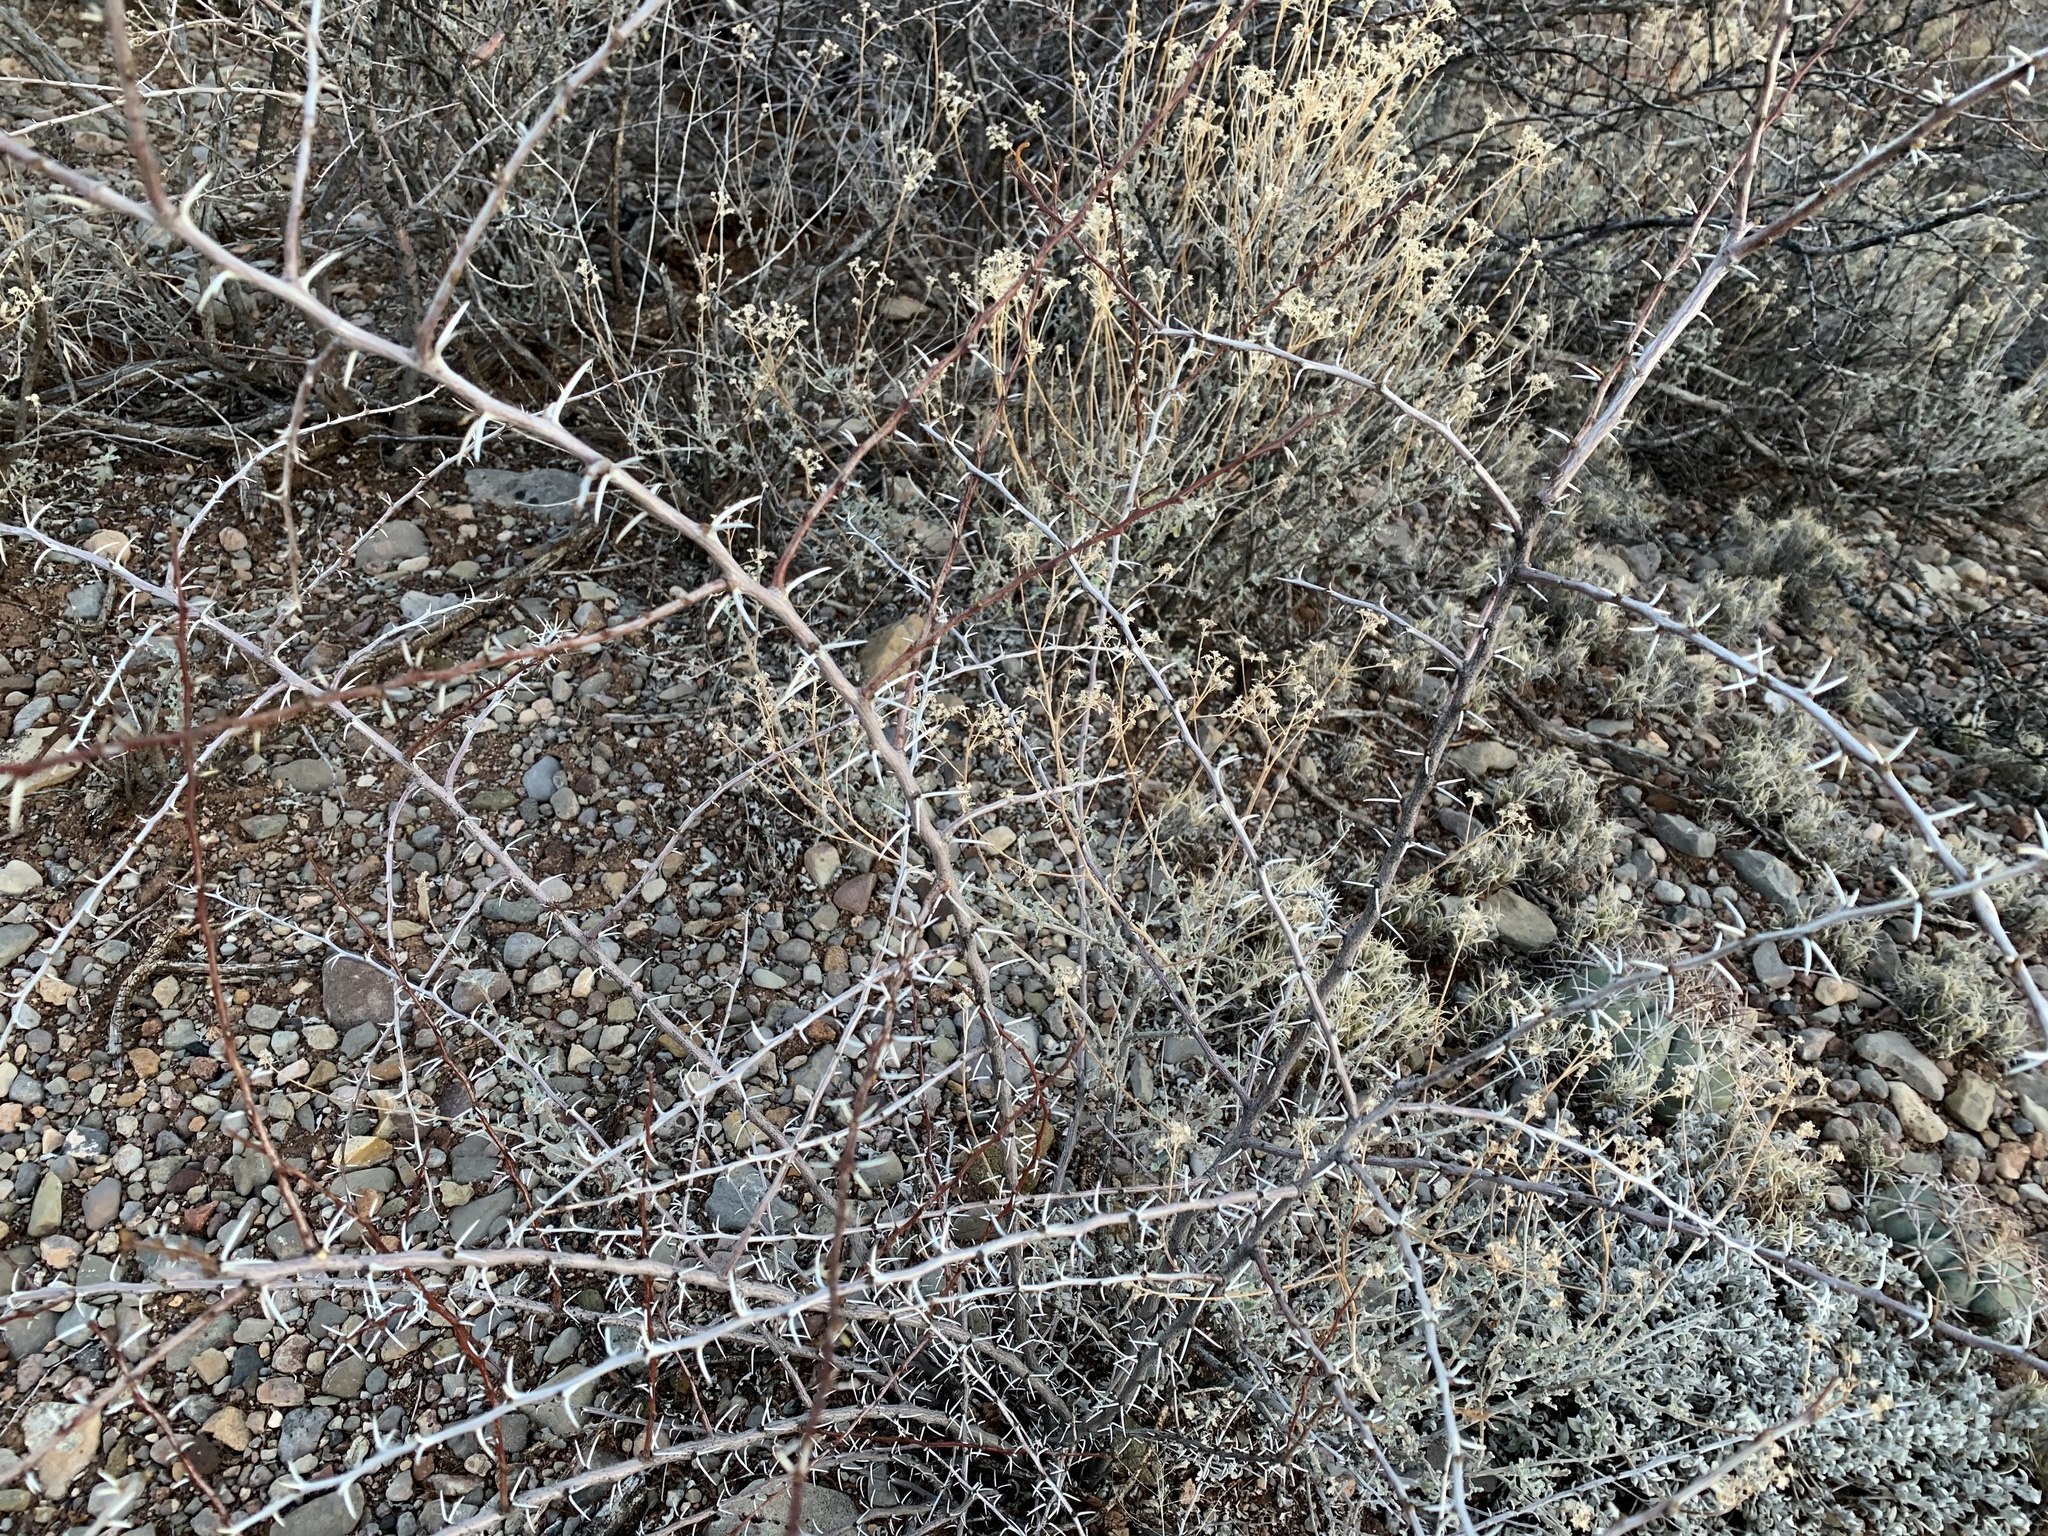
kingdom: Plantae
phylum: Tracheophyta
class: Magnoliopsida
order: Fabales
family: Fabaceae
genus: Vachellia
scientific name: Vachellia constricta
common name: Mescat acacia
